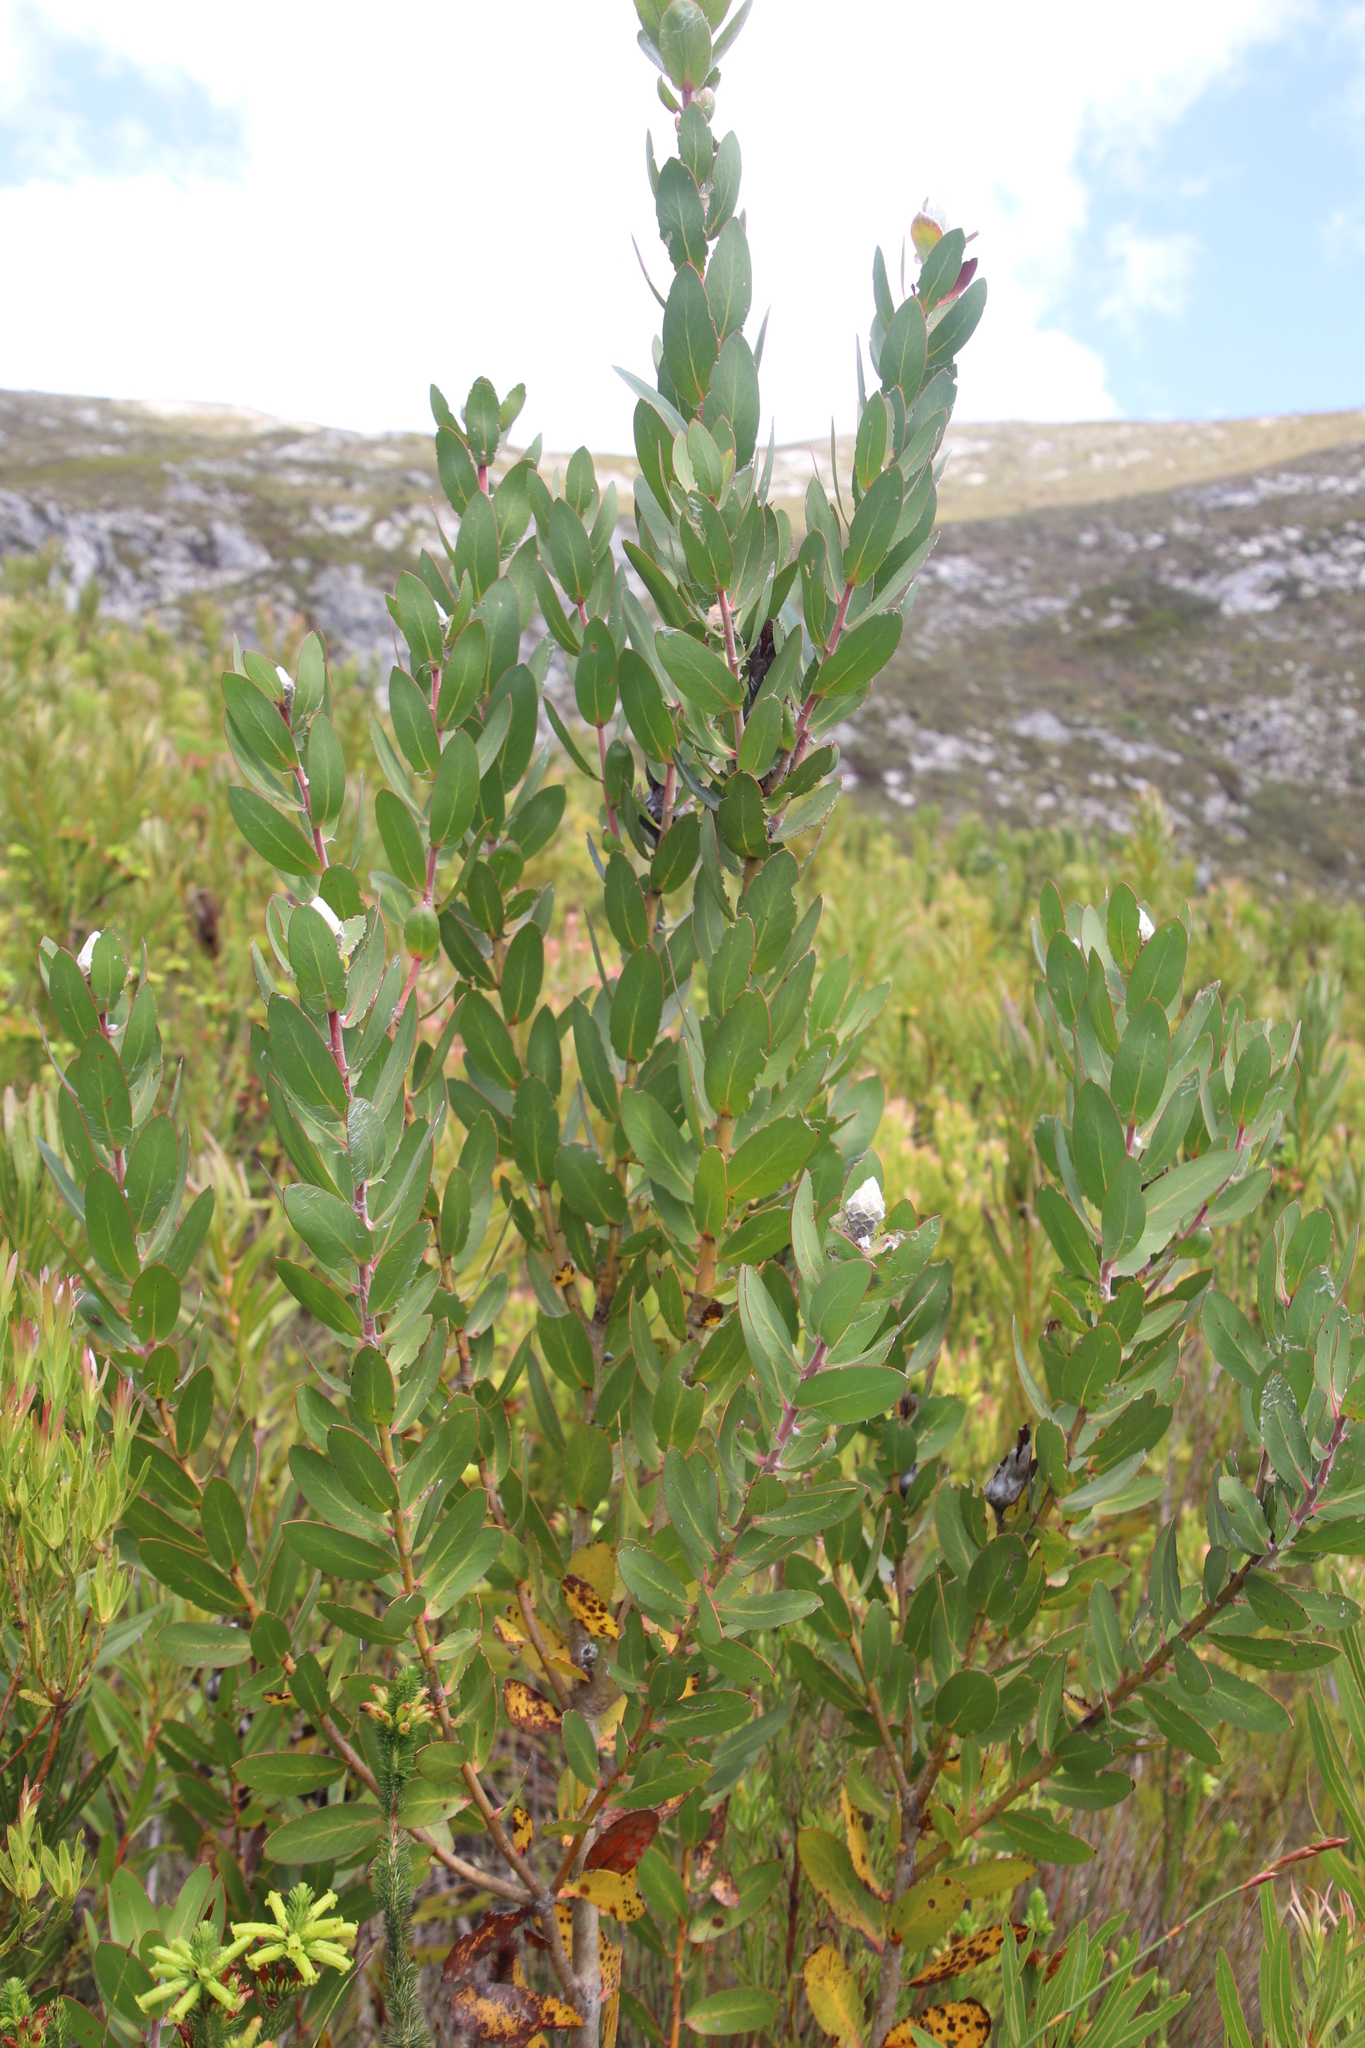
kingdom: Plantae
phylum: Tracheophyta
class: Magnoliopsida
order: Proteales
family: Proteaceae
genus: Protea
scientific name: Protea mundii
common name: Forest sugarbush
